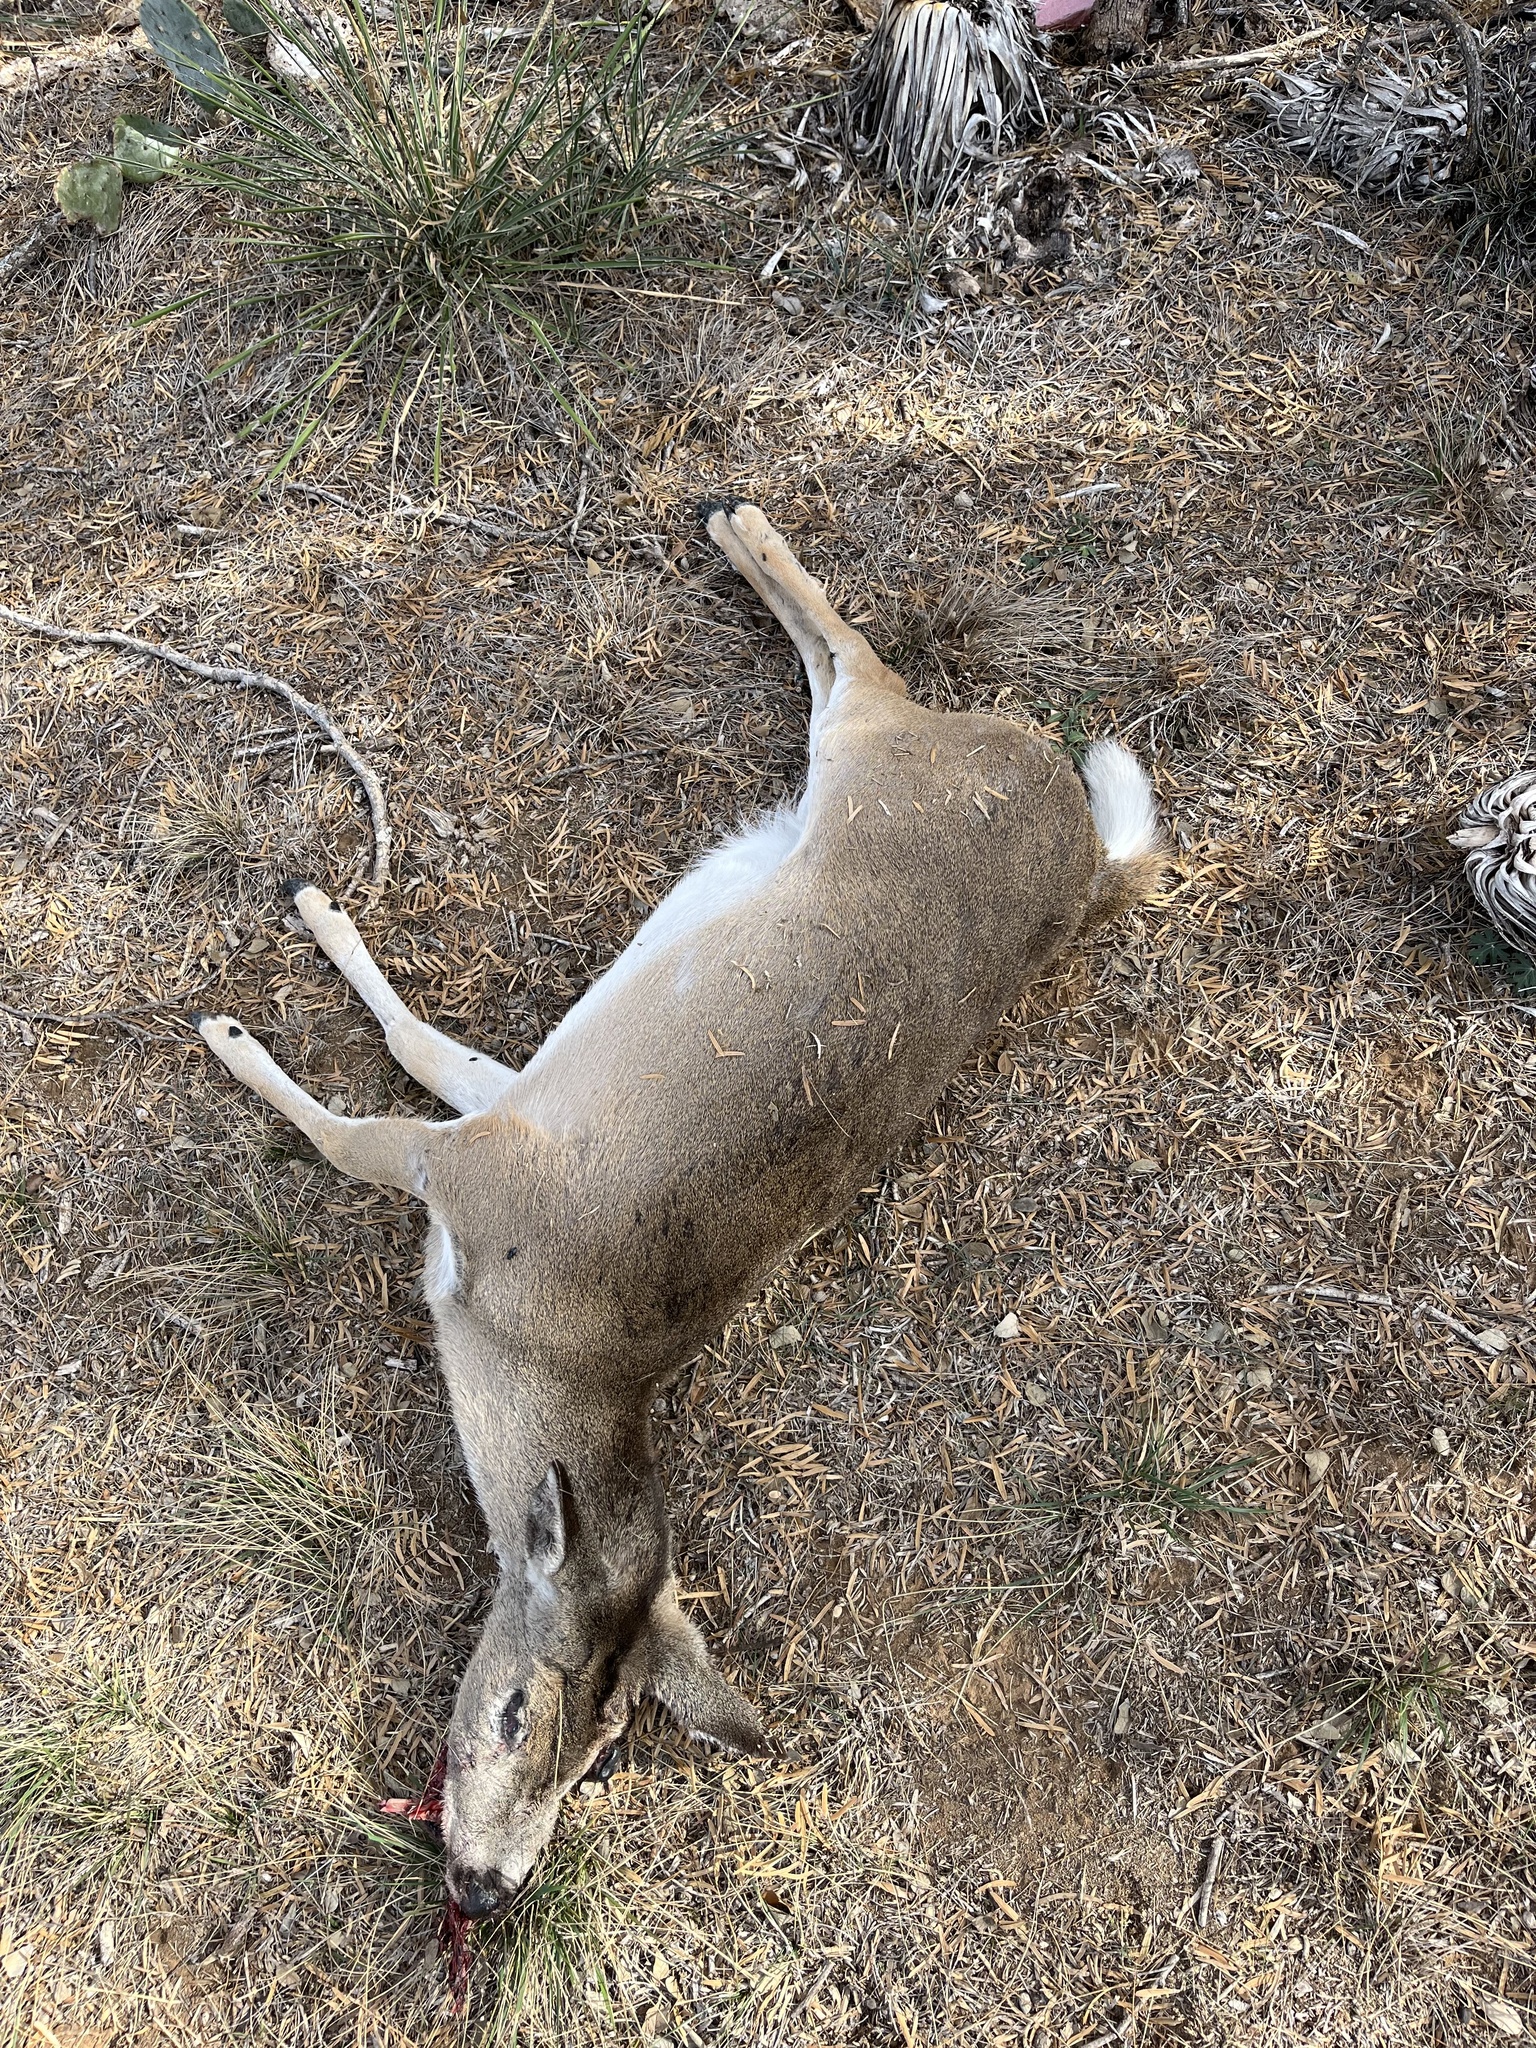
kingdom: Animalia
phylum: Chordata
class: Mammalia
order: Artiodactyla
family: Cervidae
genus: Odocoileus
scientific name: Odocoileus virginianus
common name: White-tailed deer
